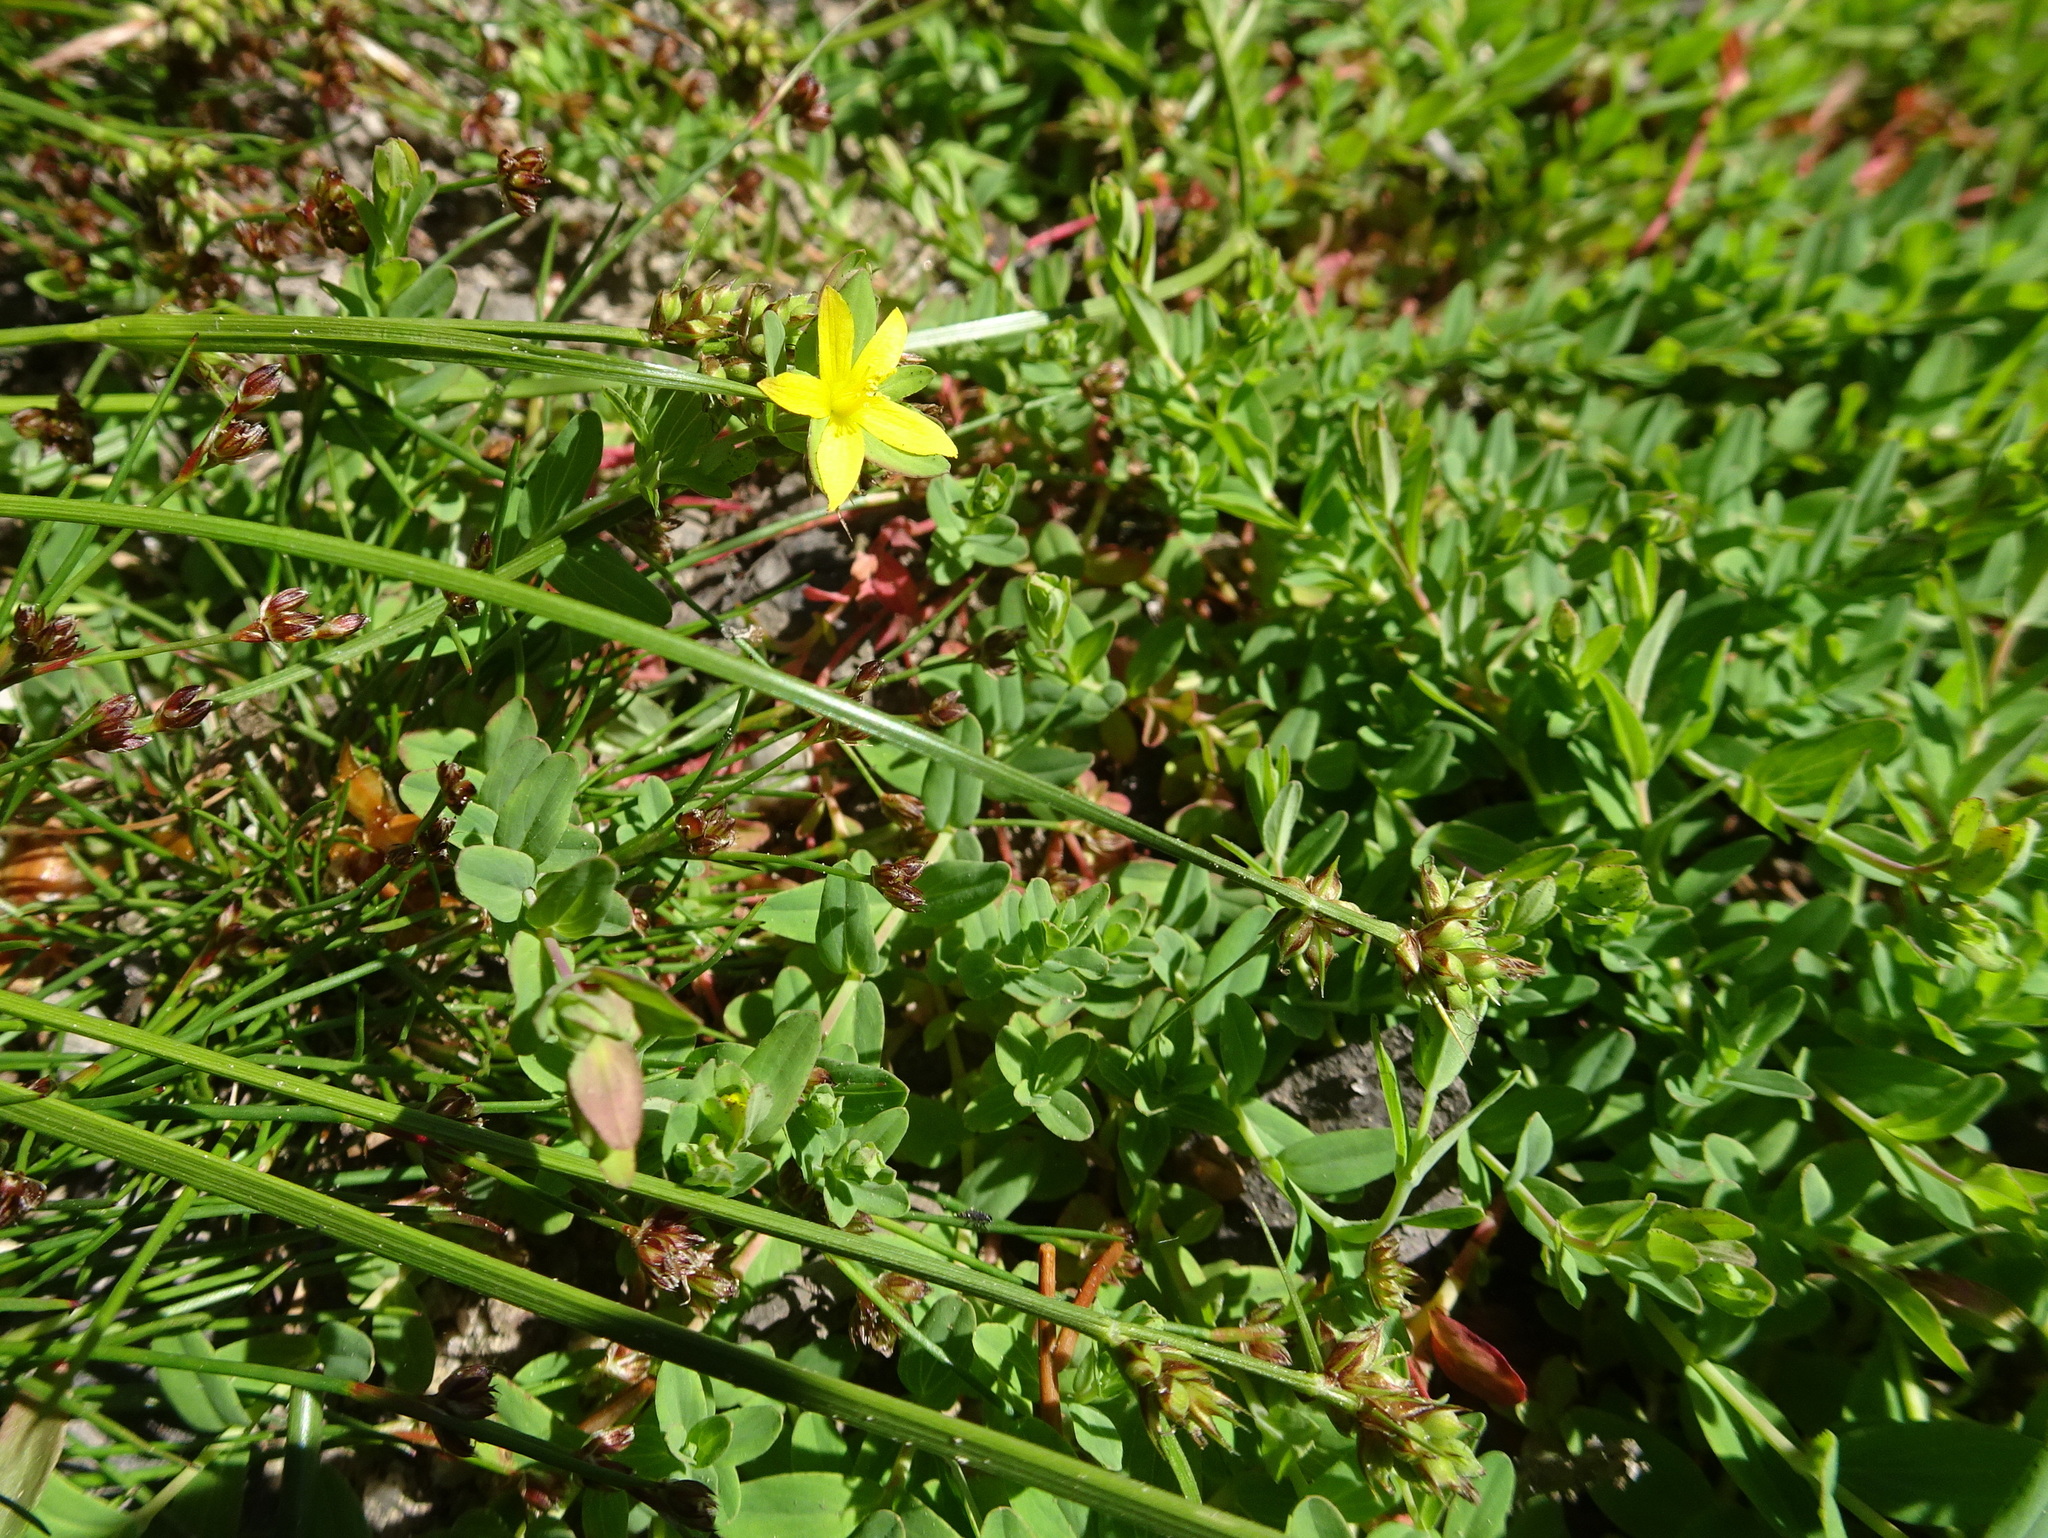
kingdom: Plantae
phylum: Tracheophyta
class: Magnoliopsida
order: Malpighiales
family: Hypericaceae
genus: Hypericum
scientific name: Hypericum humifusum
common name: Trailing st. john's-wort
